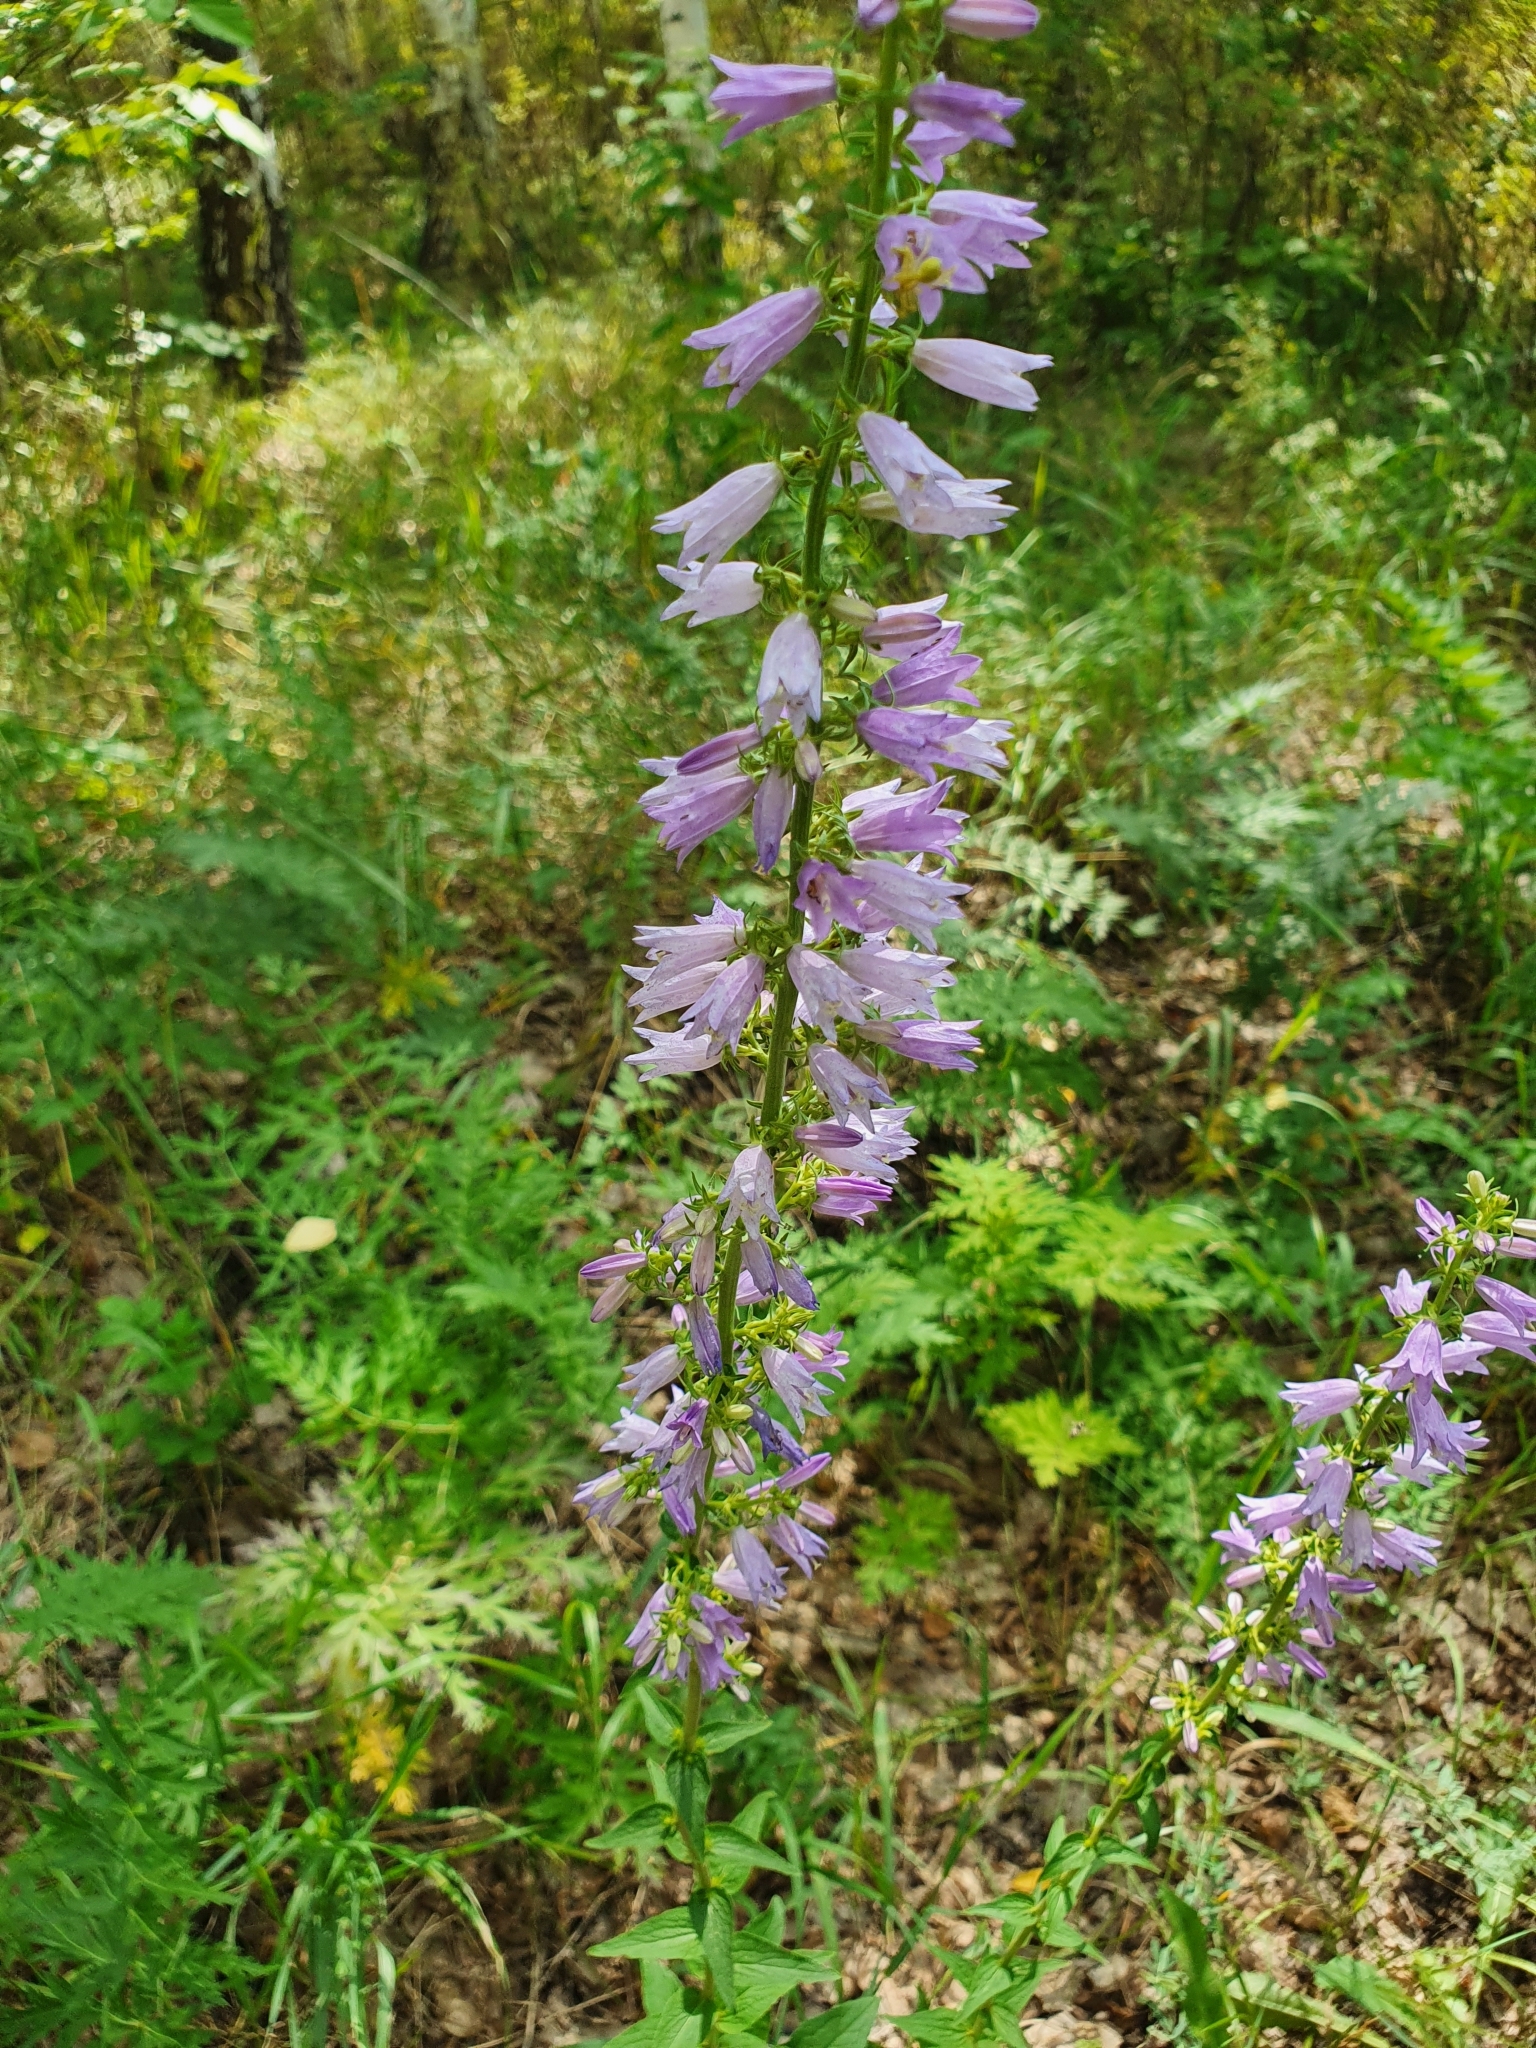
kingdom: Plantae
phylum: Tracheophyta
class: Magnoliopsida
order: Asterales
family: Campanulaceae
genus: Campanula
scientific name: Campanula bononiensis
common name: Pale bellflower
